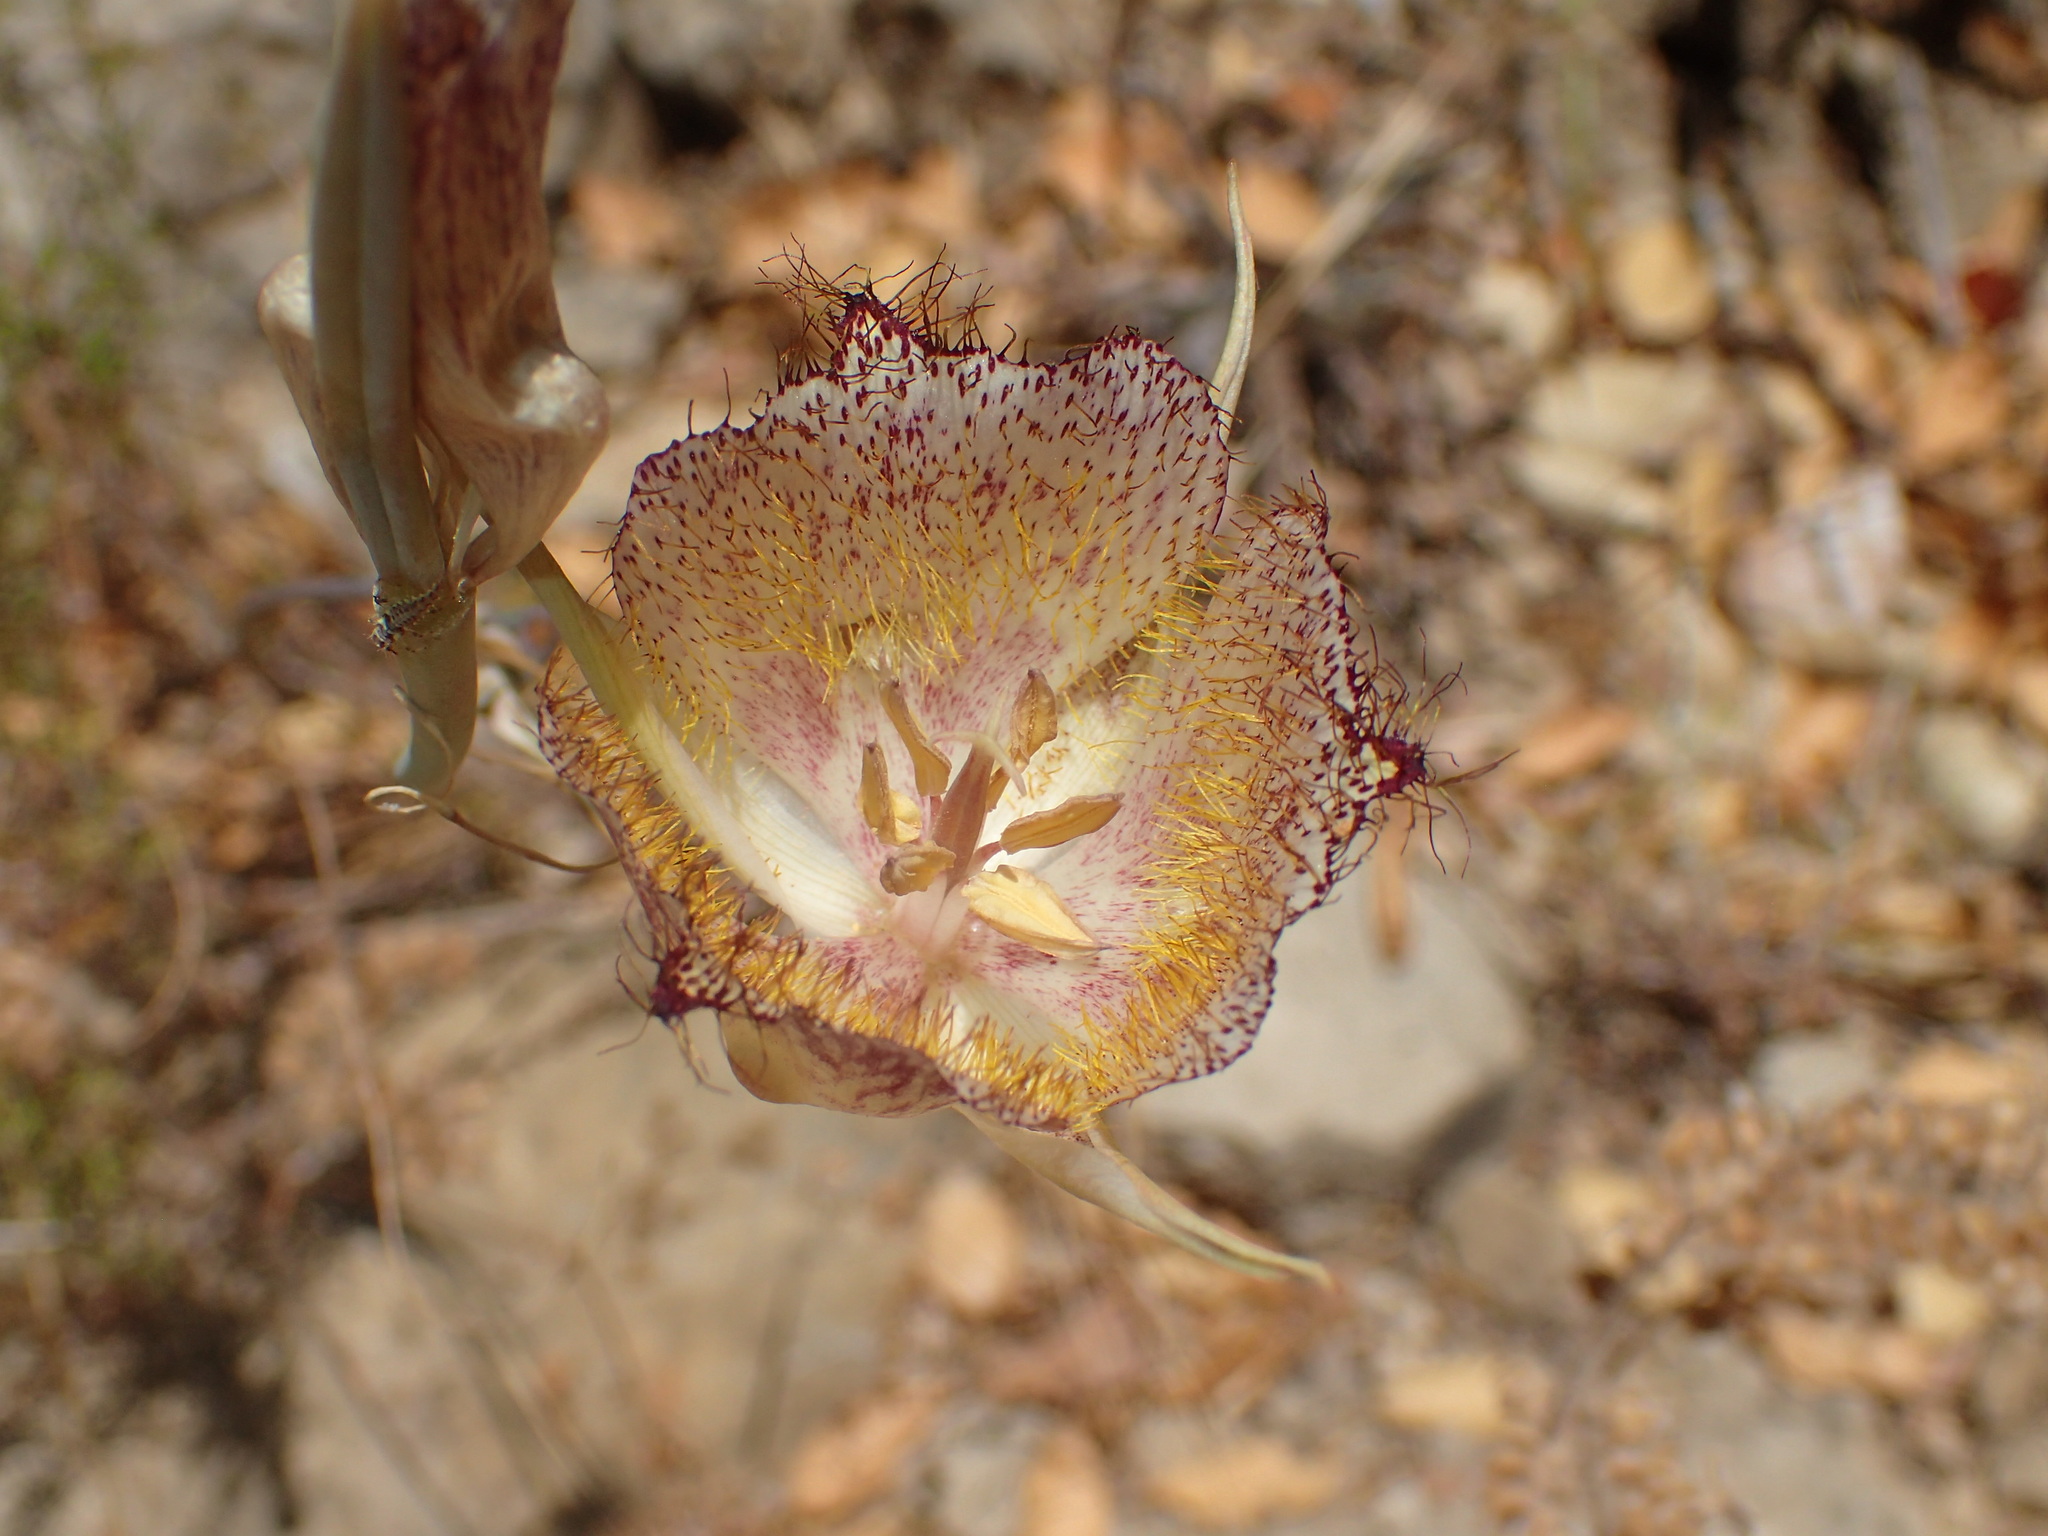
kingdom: Plantae
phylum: Tracheophyta
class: Liliopsida
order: Liliales
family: Liliaceae
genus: Calochortus
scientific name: Calochortus fimbriatus
